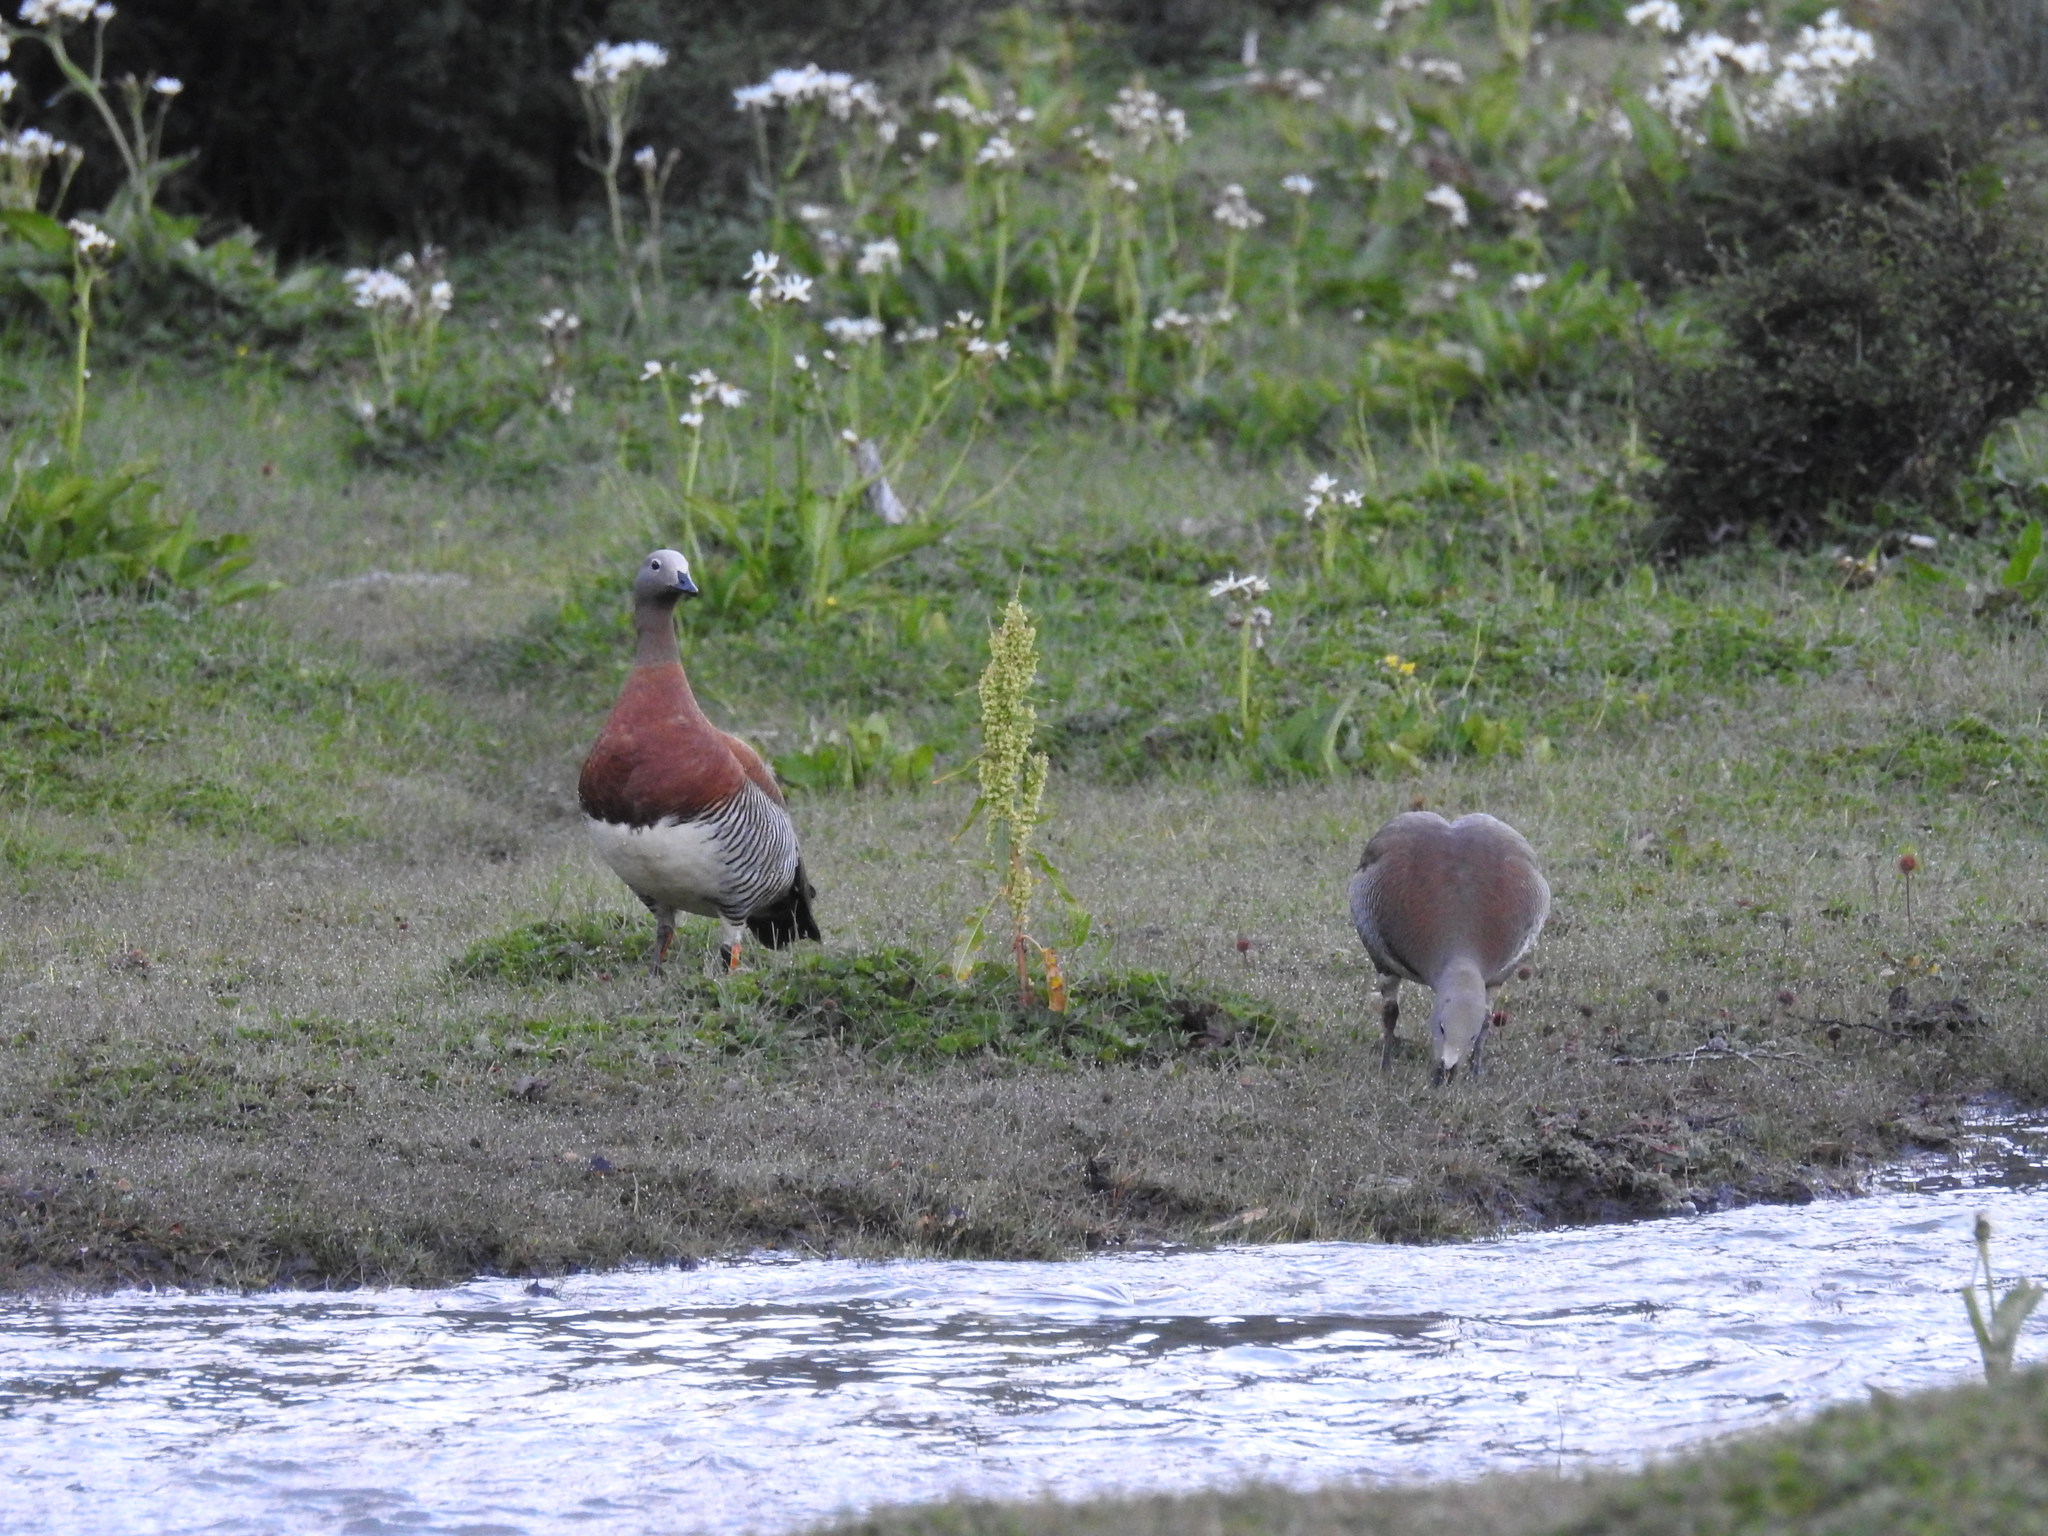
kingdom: Animalia
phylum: Chordata
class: Aves
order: Anseriformes
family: Anatidae
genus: Chloephaga
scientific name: Chloephaga poliocephala
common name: Ashy-headed goose
